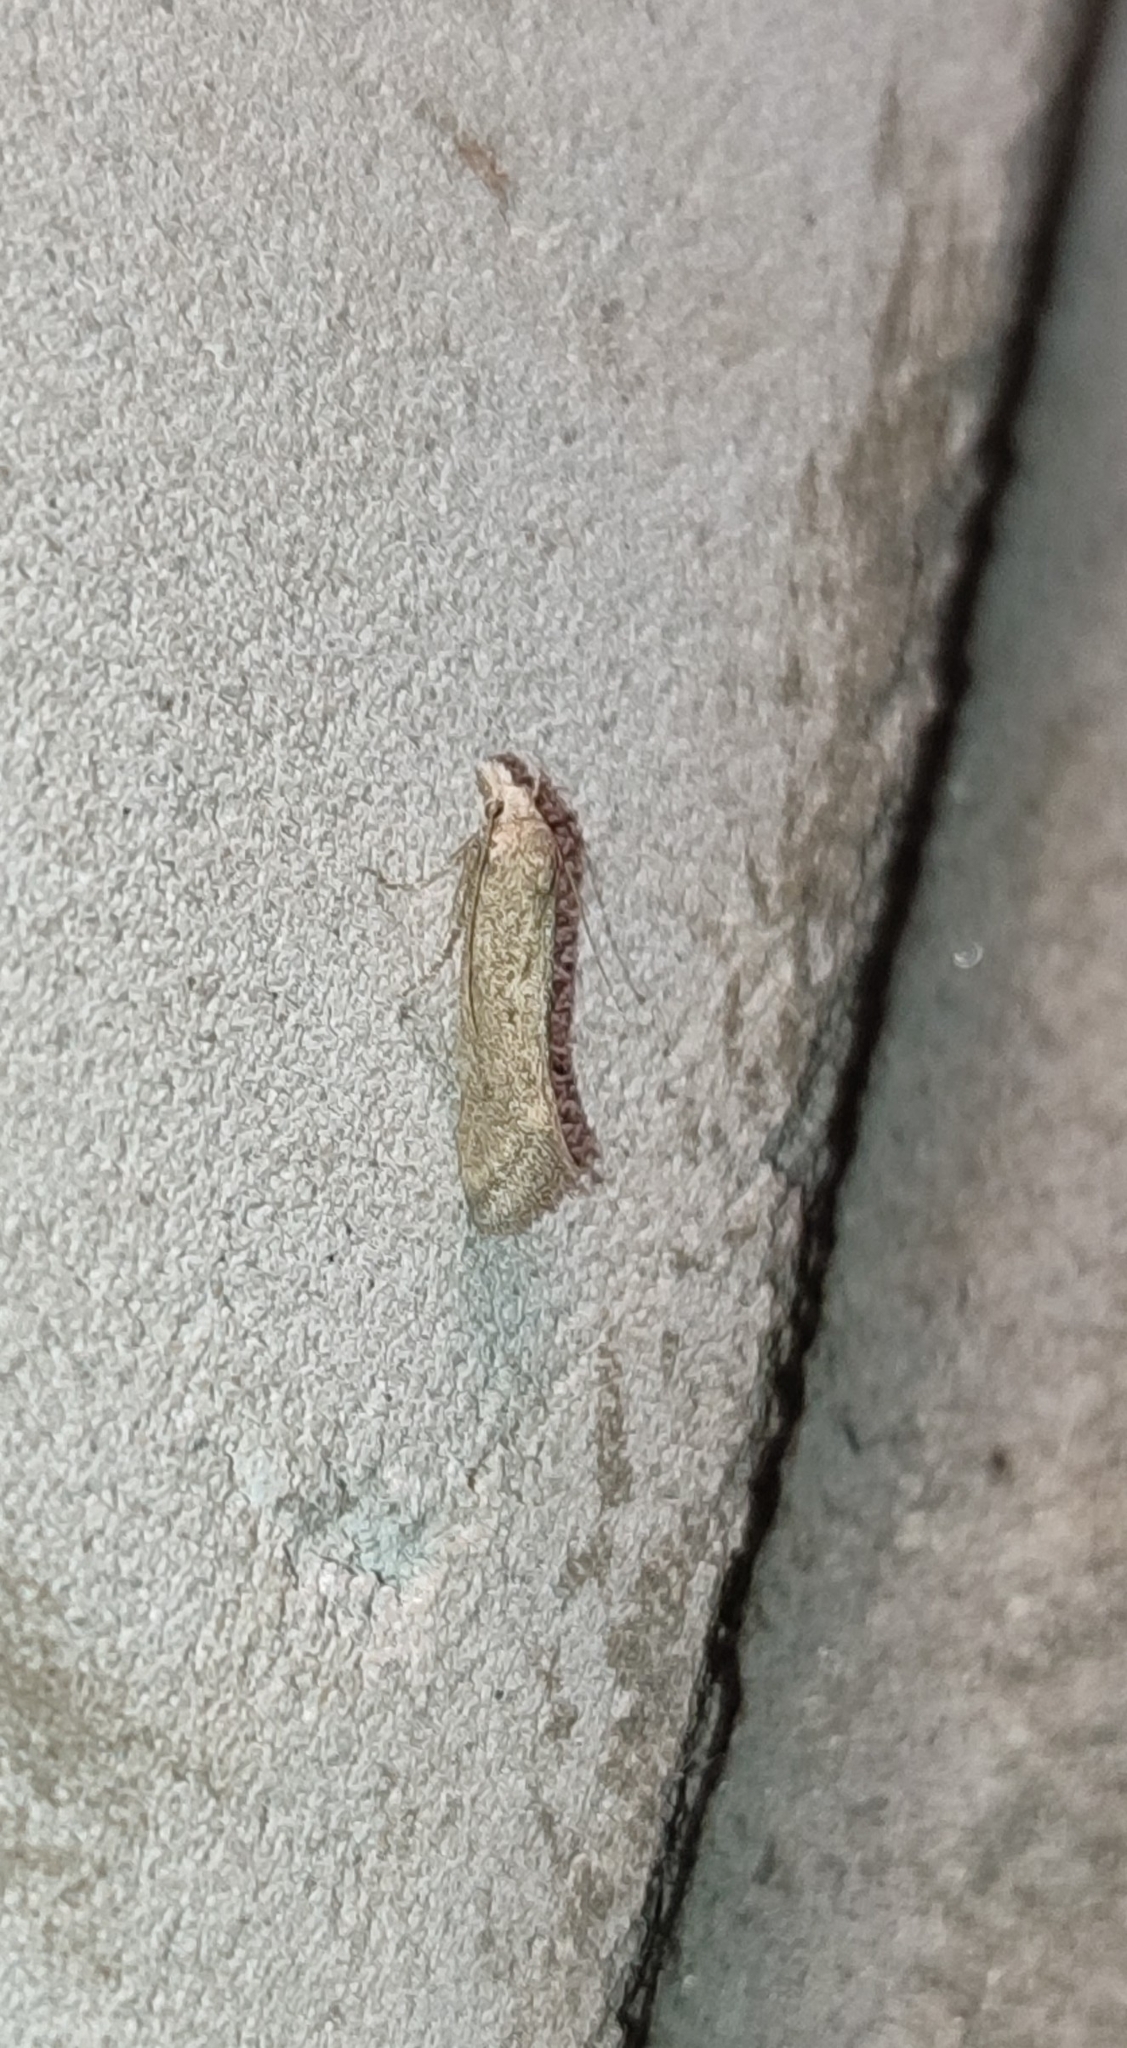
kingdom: Animalia
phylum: Arthropoda
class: Insecta
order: Lepidoptera
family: Gelechiidae
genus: Metanarsia
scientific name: Metanarsia modesta
